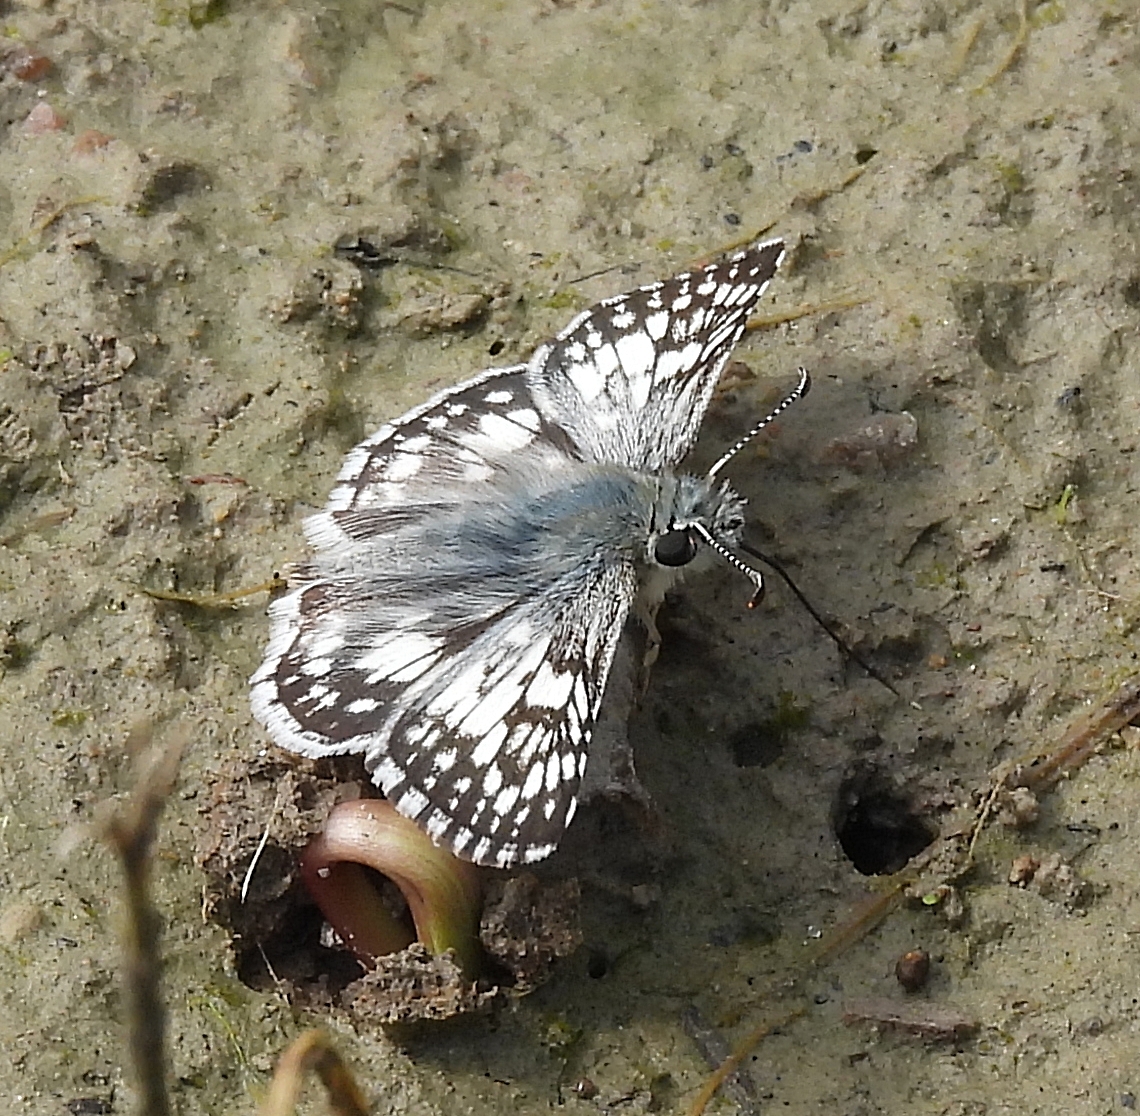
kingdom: Animalia
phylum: Arthropoda
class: Insecta
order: Lepidoptera
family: Hesperiidae
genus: Burnsius
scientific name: Burnsius communis
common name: Common checkered-skipper
